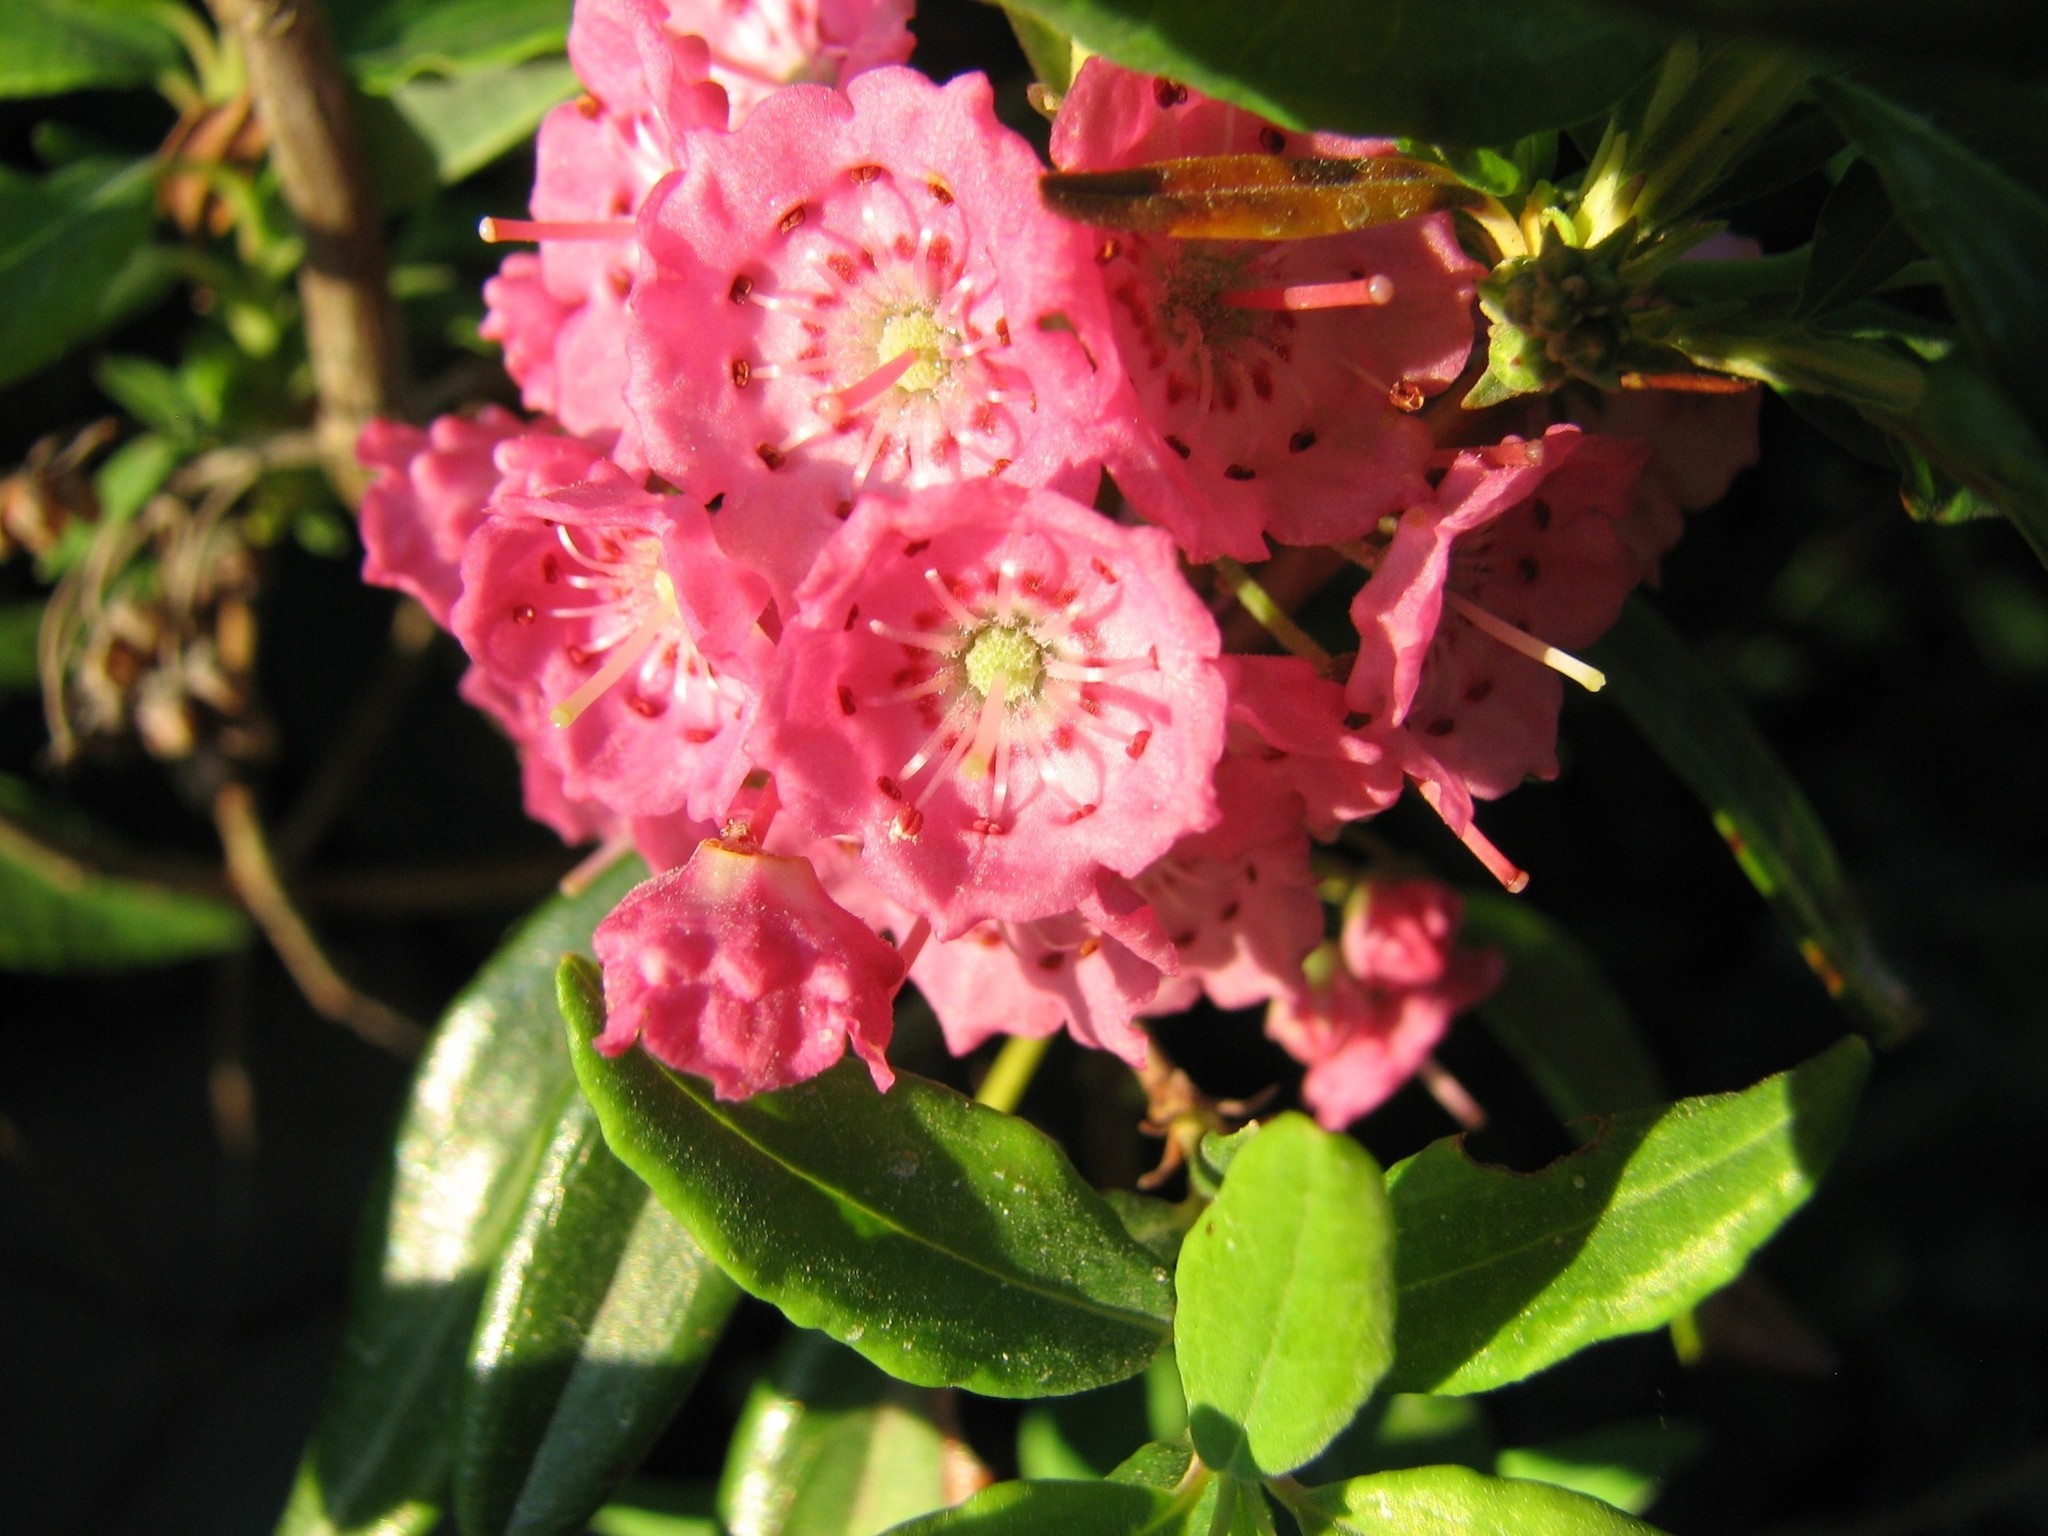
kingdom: Plantae
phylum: Tracheophyta
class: Magnoliopsida
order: Ericales
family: Ericaceae
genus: Kalmia
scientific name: Kalmia angustifolia
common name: Sheep-laurel
